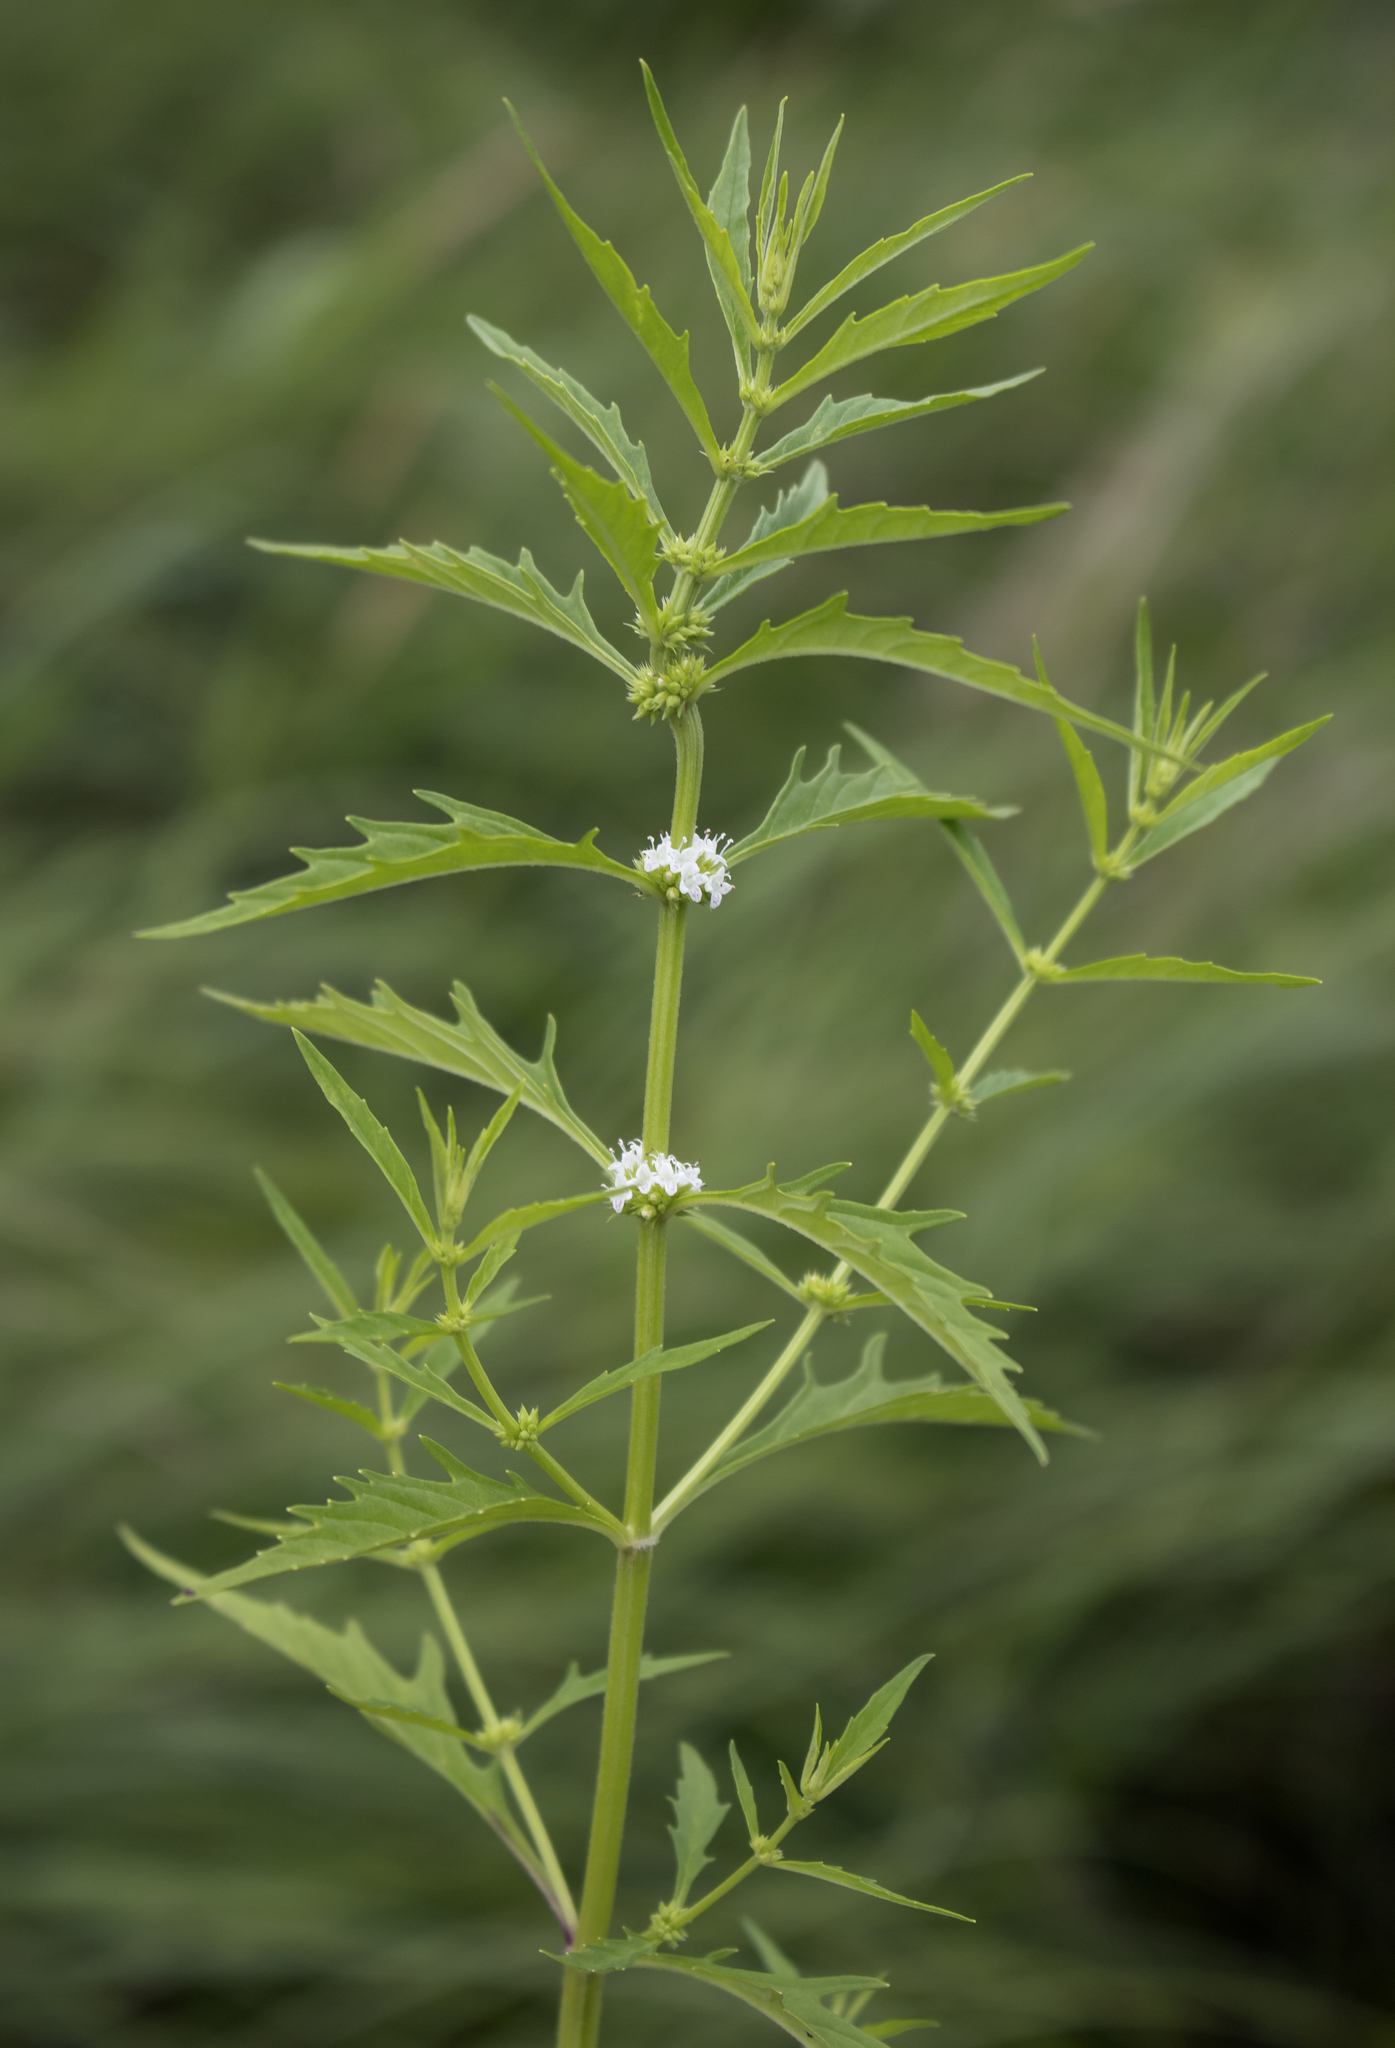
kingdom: Plantae
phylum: Tracheophyta
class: Magnoliopsida
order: Lamiales
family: Lamiaceae
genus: Lycopus
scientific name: Lycopus americanus
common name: American bugleweed
